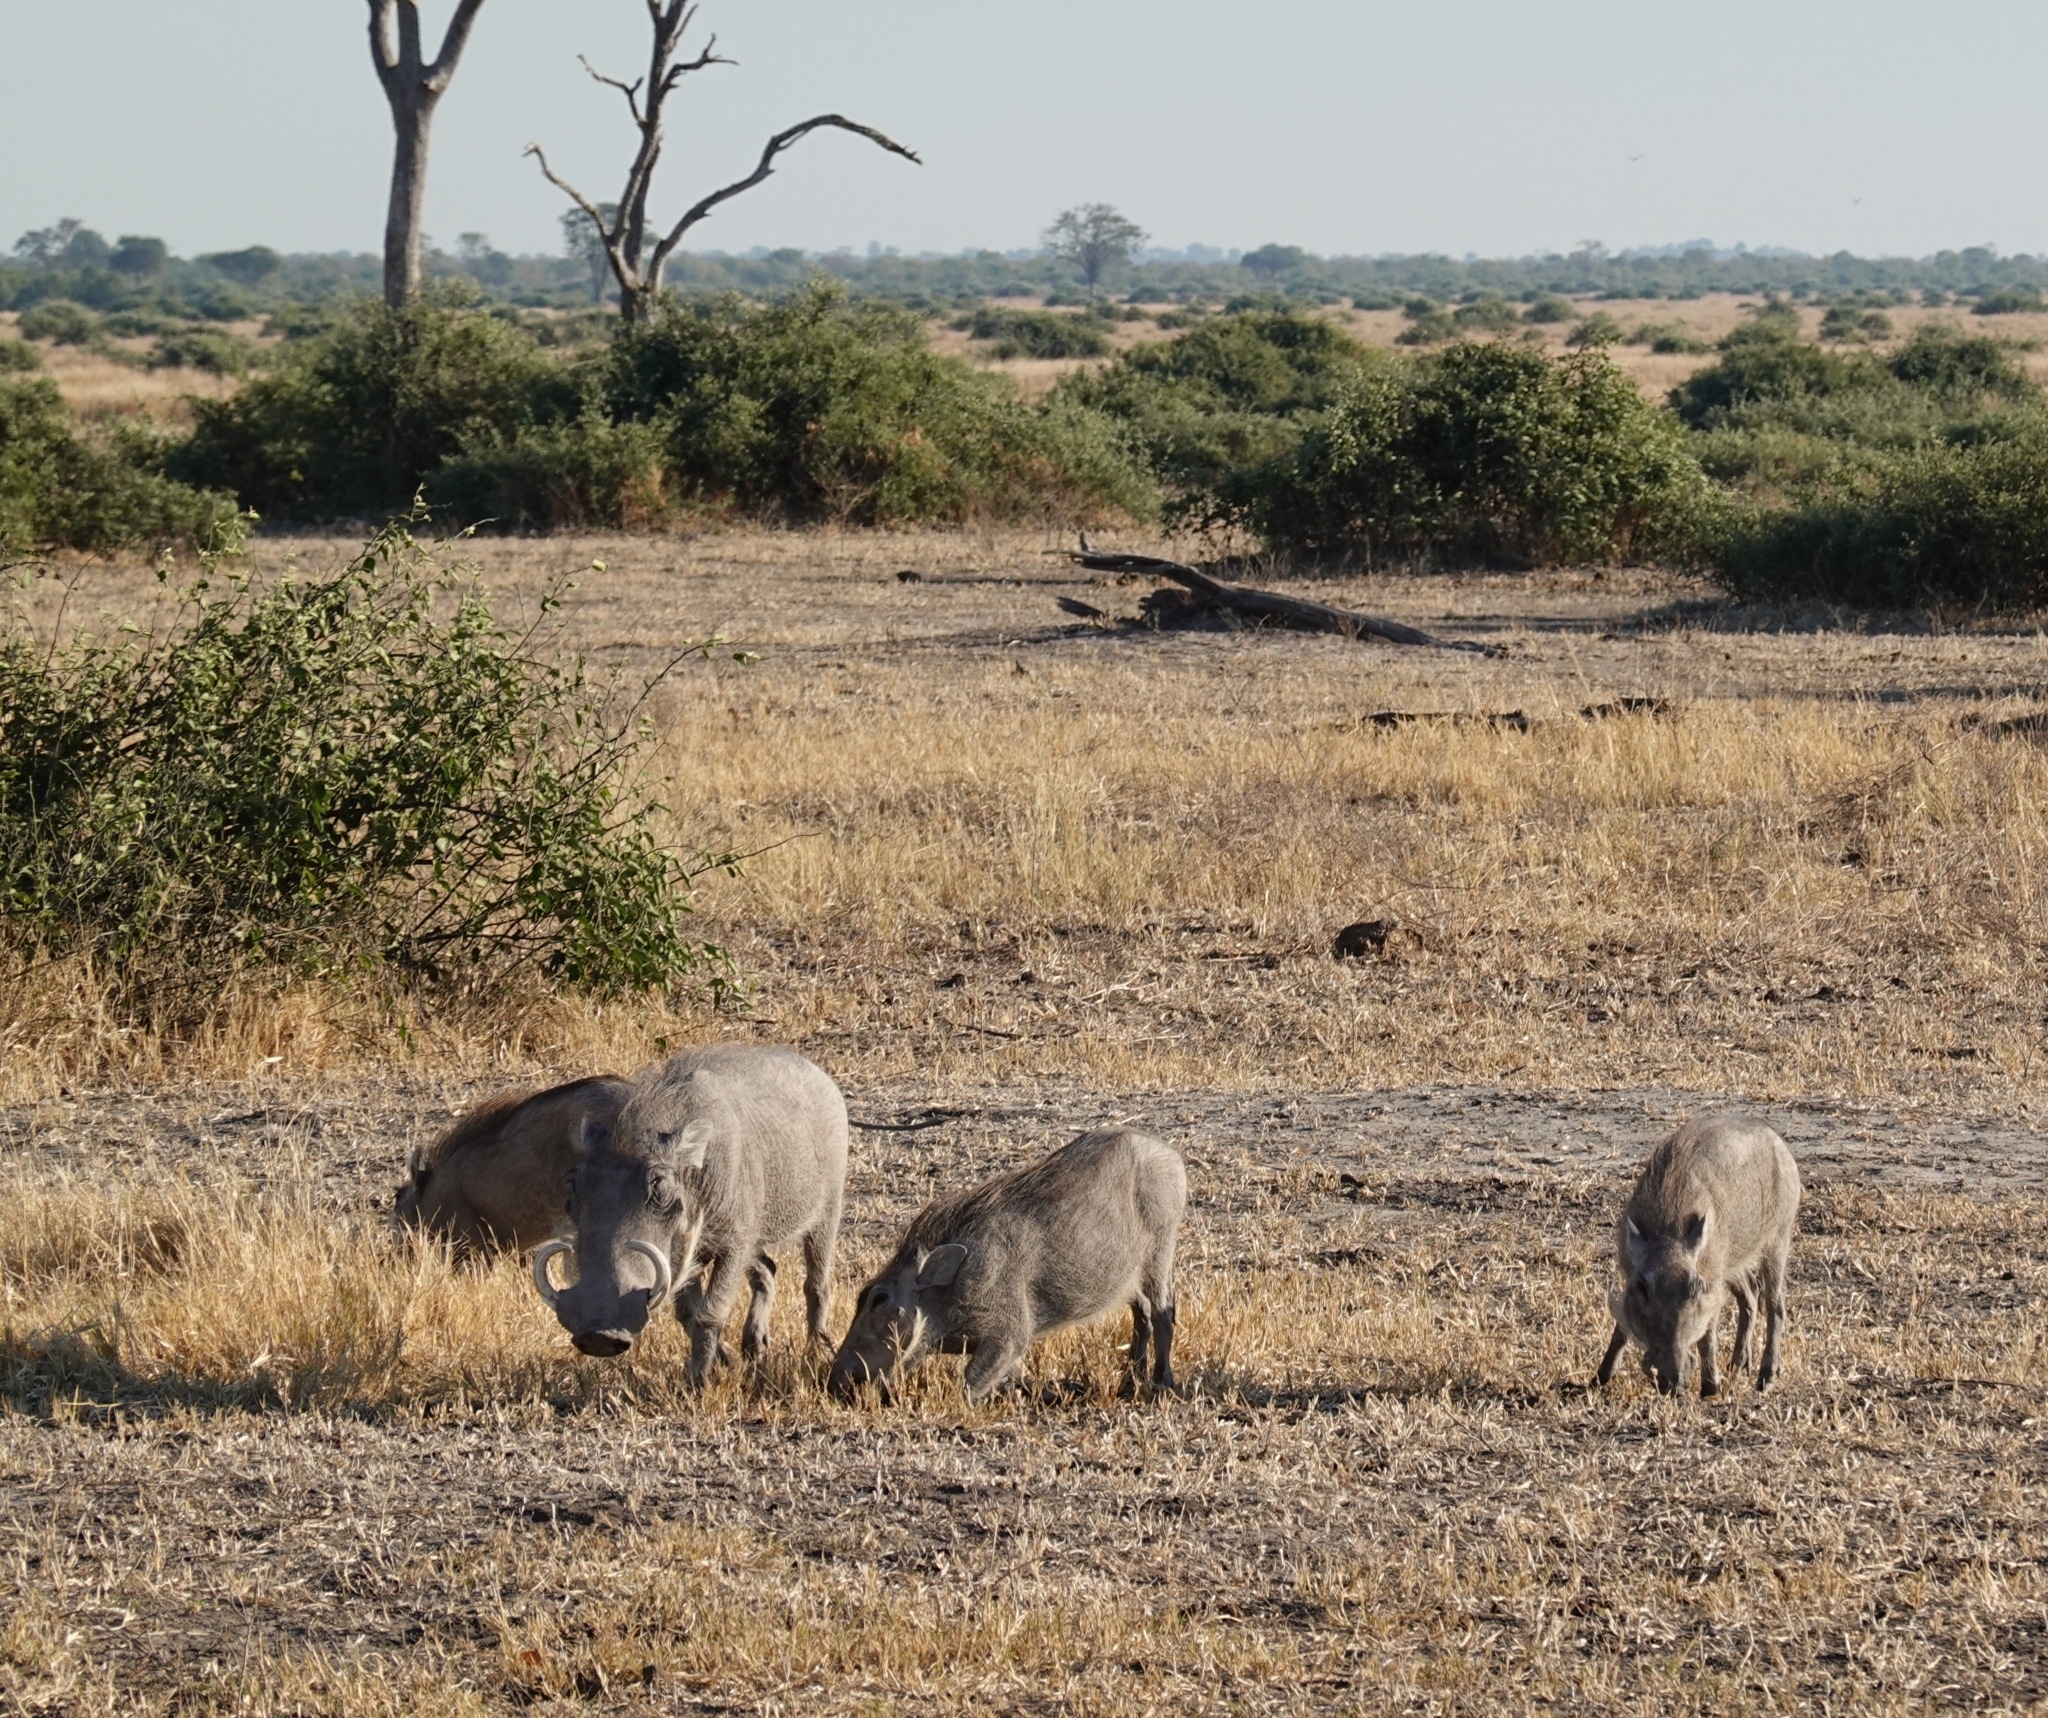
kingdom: Animalia
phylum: Chordata
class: Mammalia
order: Artiodactyla
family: Suidae
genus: Phacochoerus
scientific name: Phacochoerus africanus
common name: Common warthog
